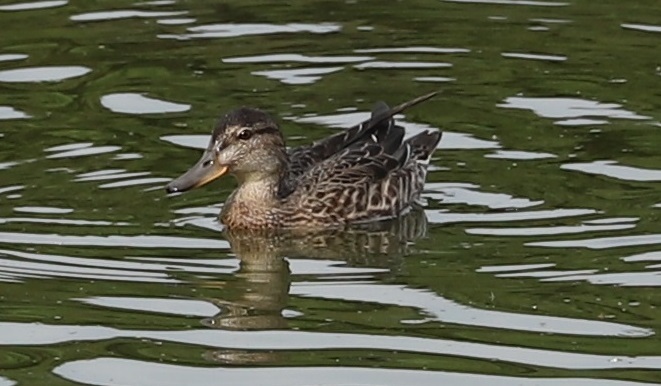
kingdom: Animalia
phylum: Chordata
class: Aves
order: Anseriformes
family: Anatidae
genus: Anas
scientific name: Anas crecca
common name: Eurasian teal
